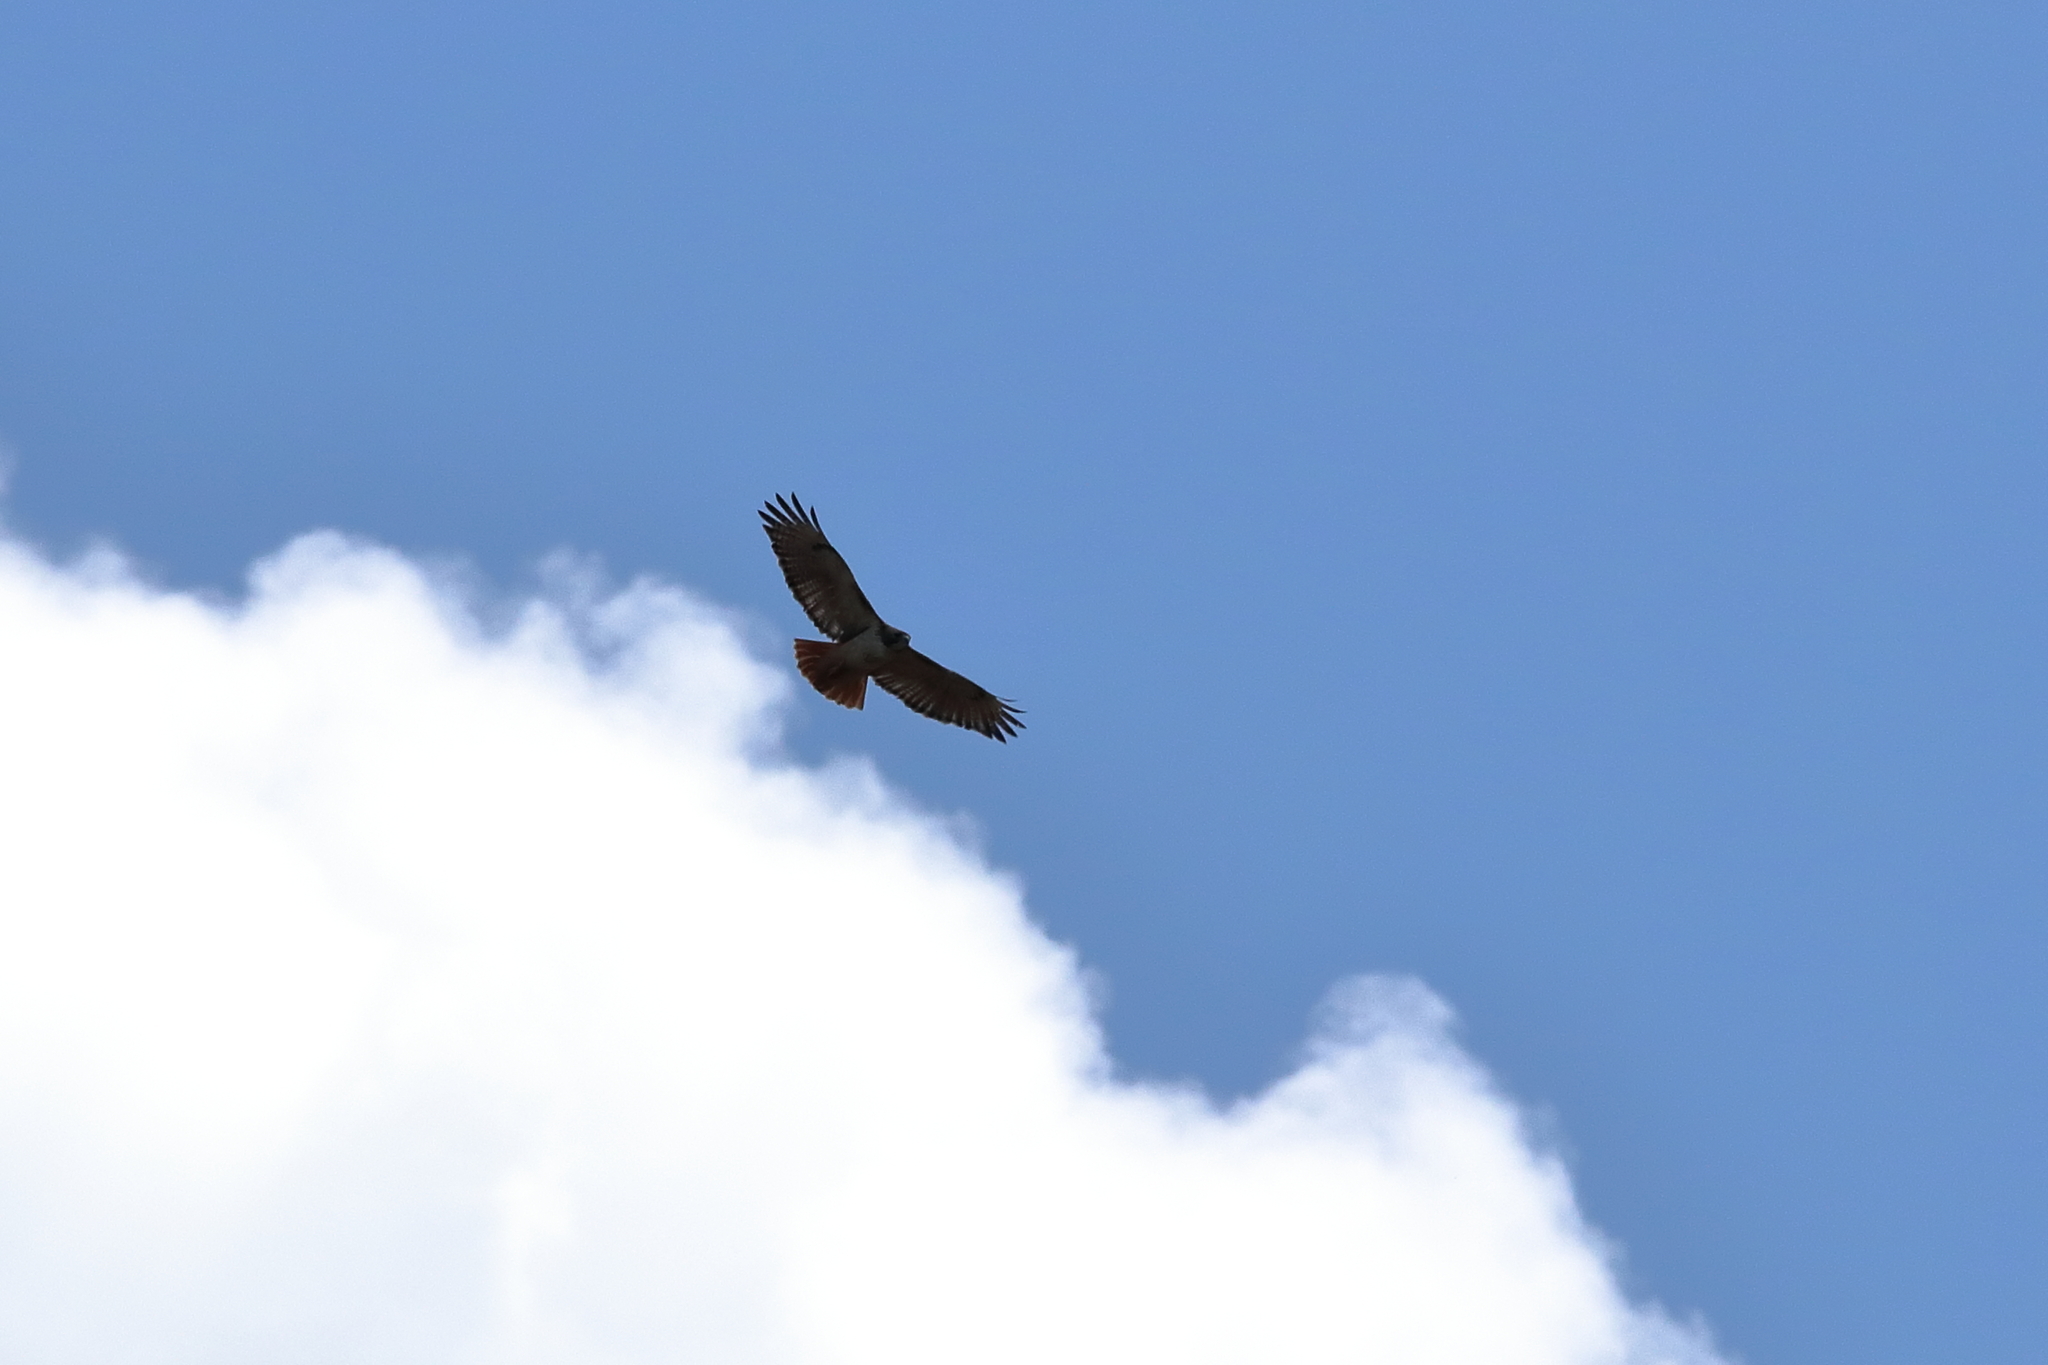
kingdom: Animalia
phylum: Chordata
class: Aves
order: Accipitriformes
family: Accipitridae
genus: Buteo
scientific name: Buteo jamaicensis
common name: Red-tailed hawk
